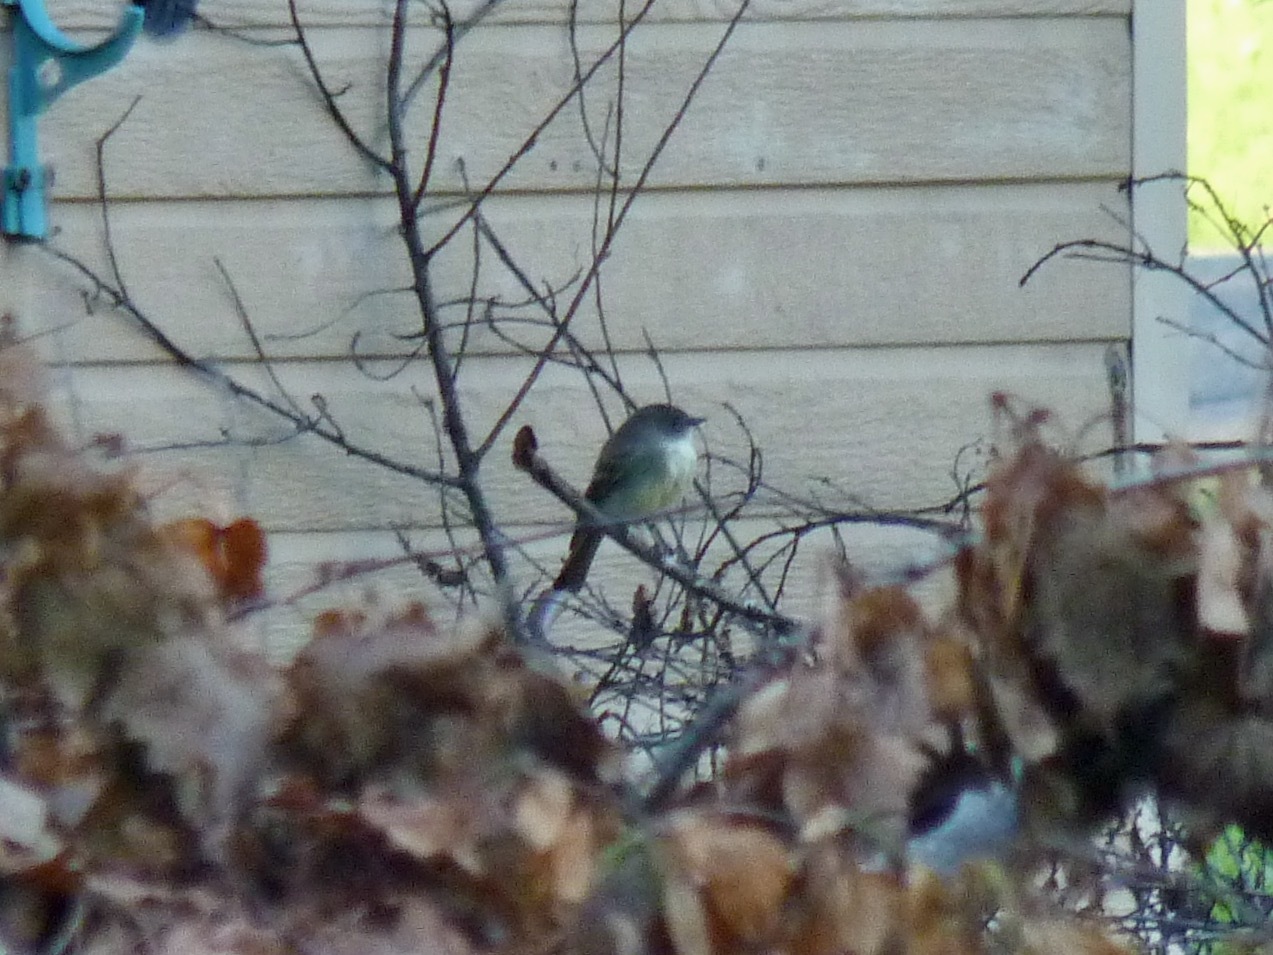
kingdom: Animalia
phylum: Chordata
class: Aves
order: Passeriformes
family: Tyrannidae
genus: Sayornis
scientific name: Sayornis phoebe
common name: Eastern phoebe
